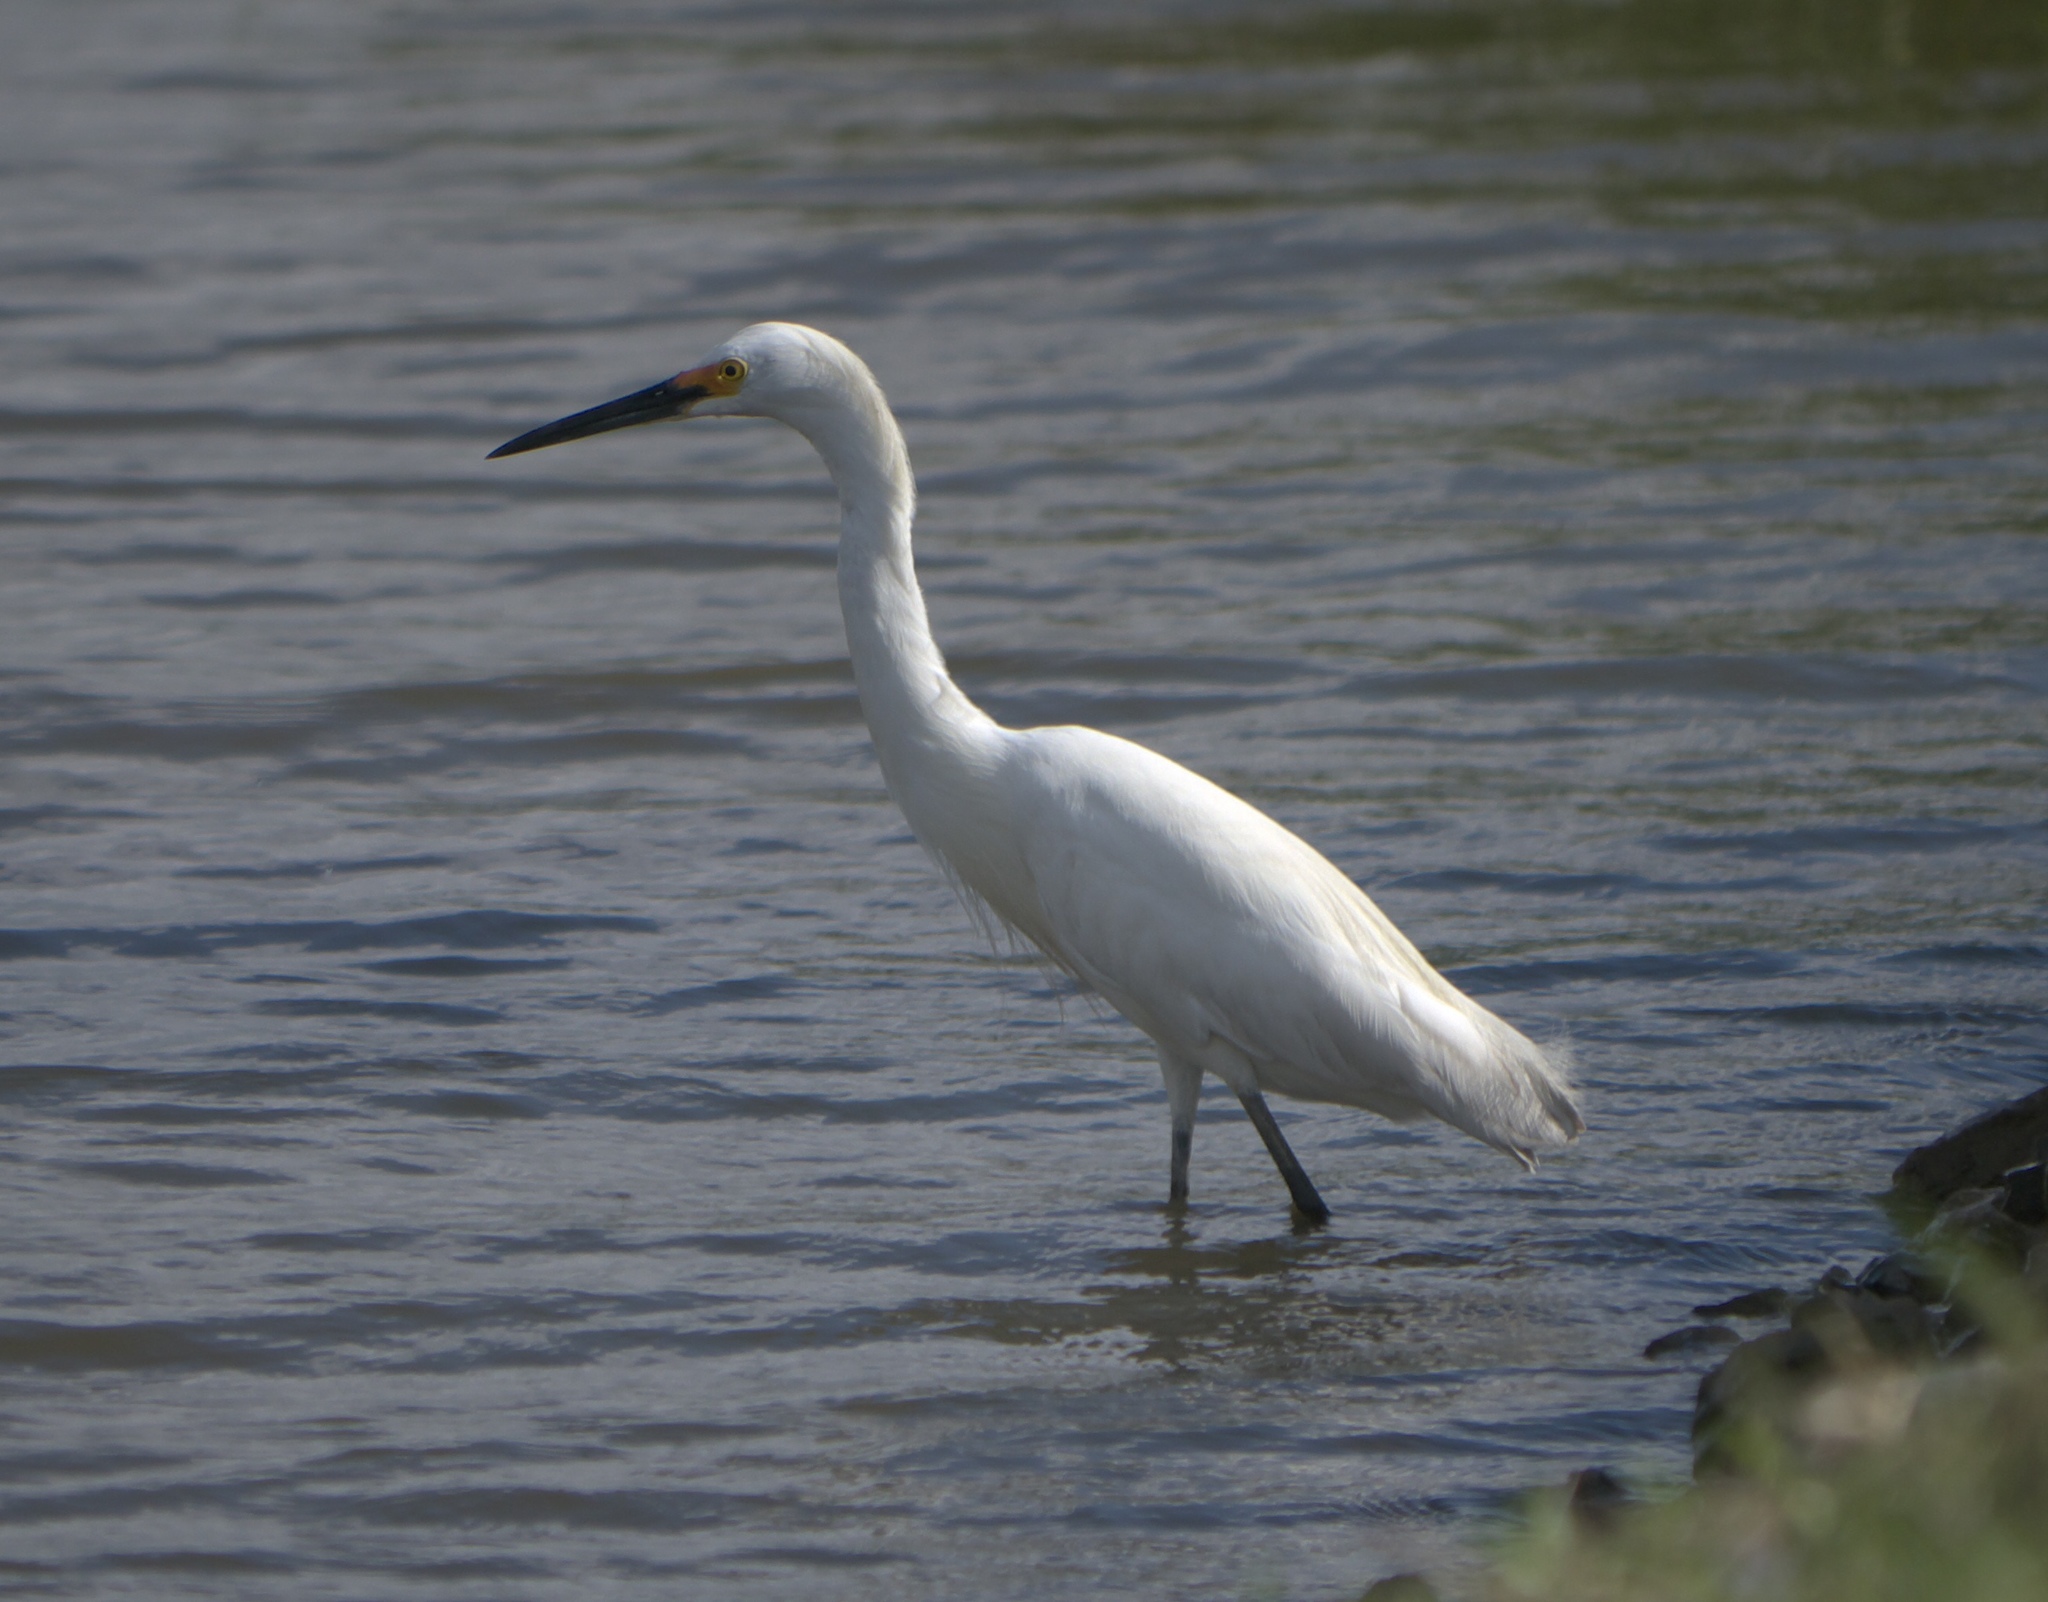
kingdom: Animalia
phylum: Chordata
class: Aves
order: Pelecaniformes
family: Ardeidae
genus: Egretta
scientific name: Egretta thula
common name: Snowy egret
